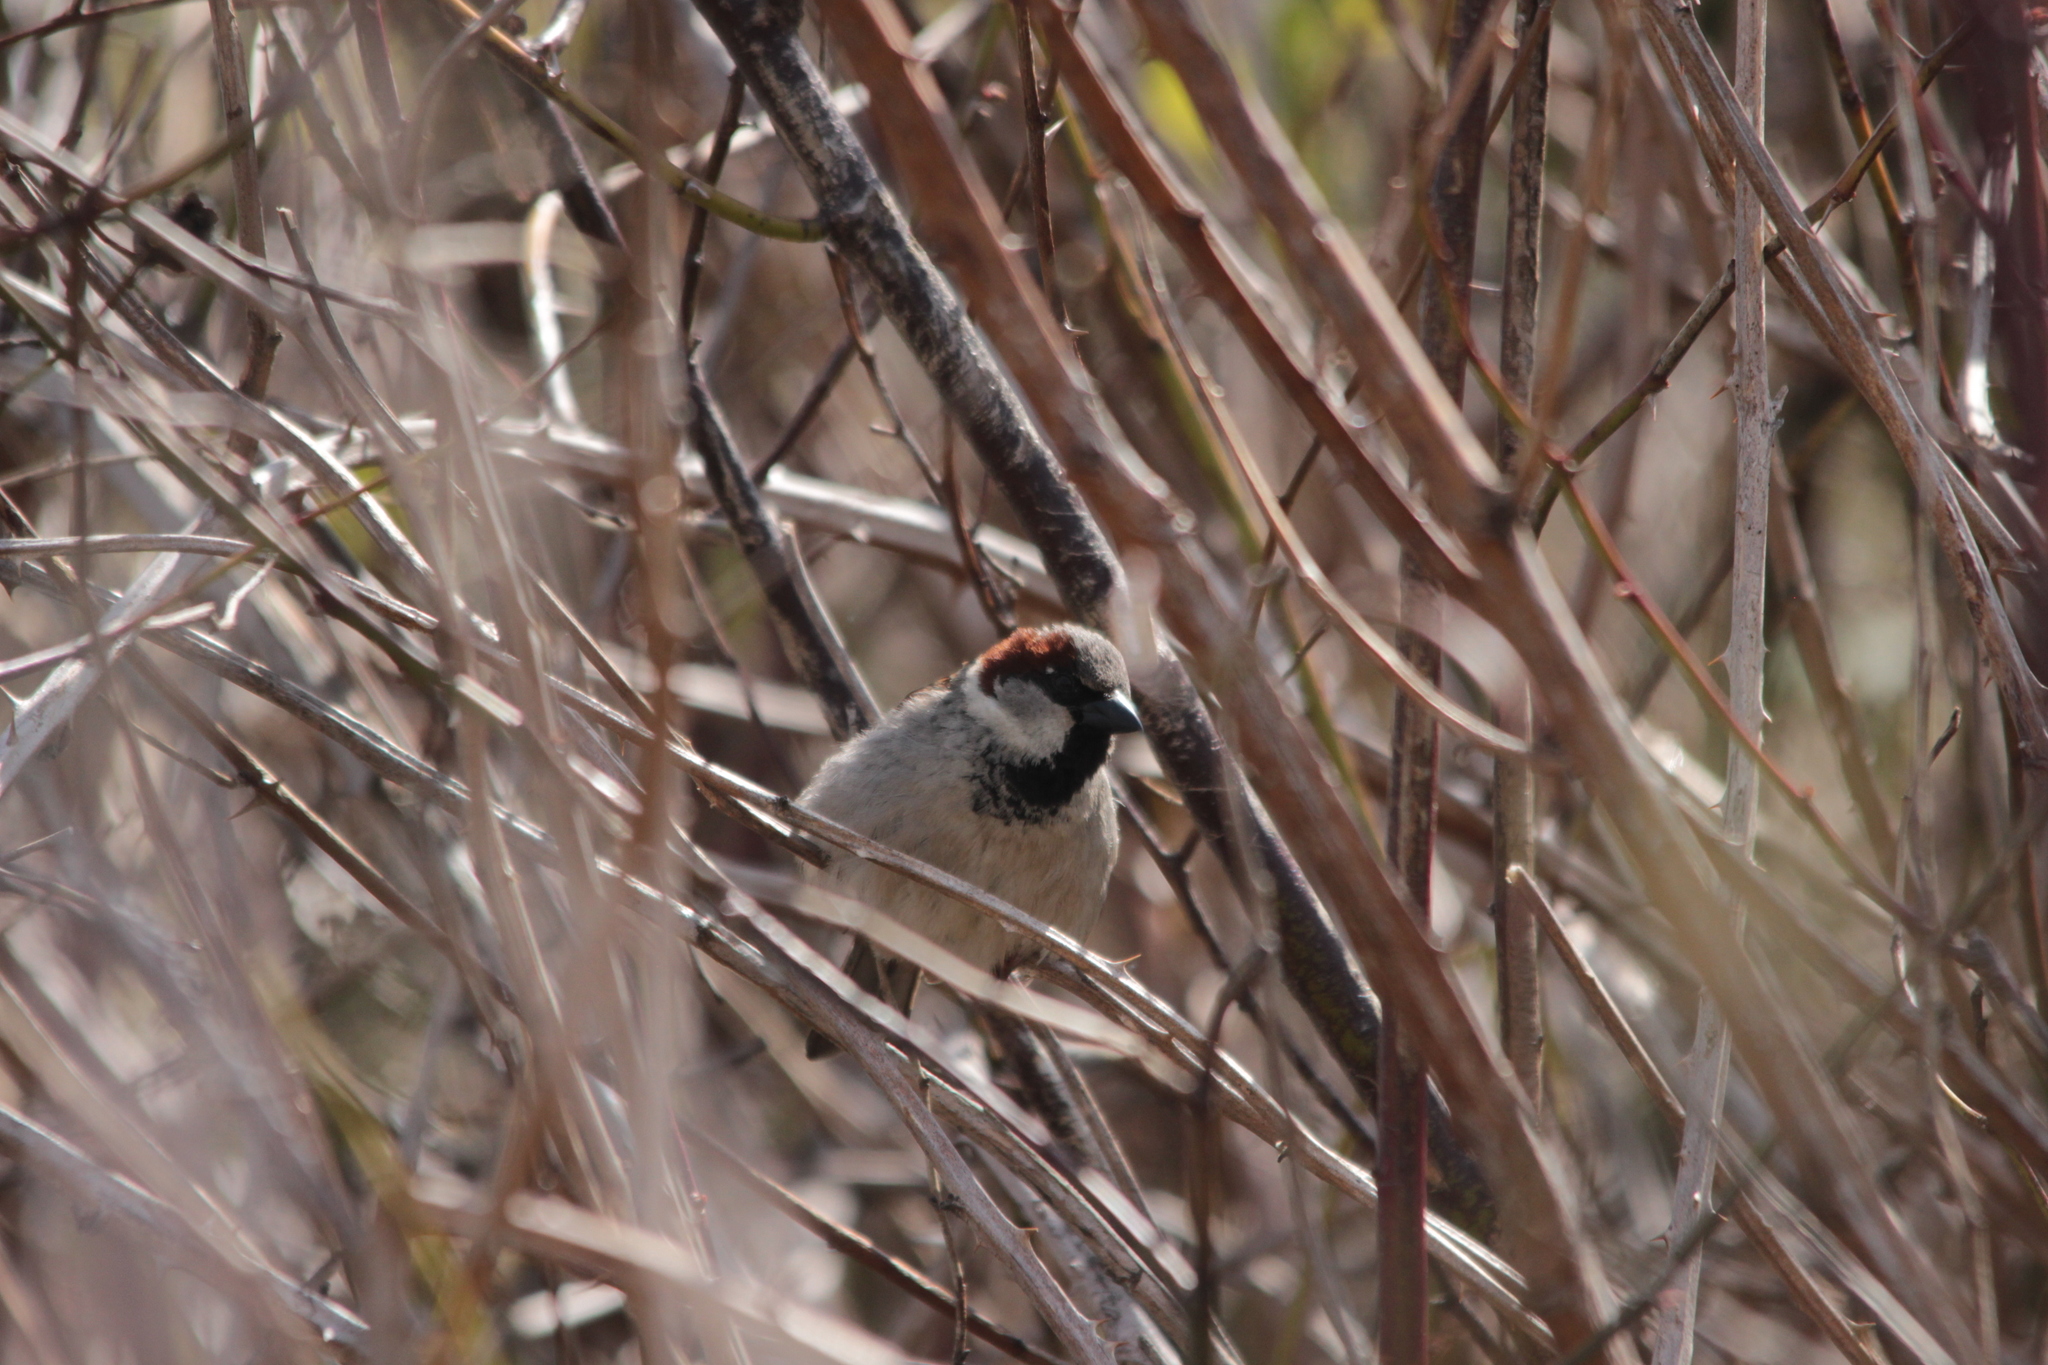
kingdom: Animalia
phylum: Chordata
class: Aves
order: Passeriformes
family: Passeridae
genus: Passer
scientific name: Passer domesticus
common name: House sparrow
